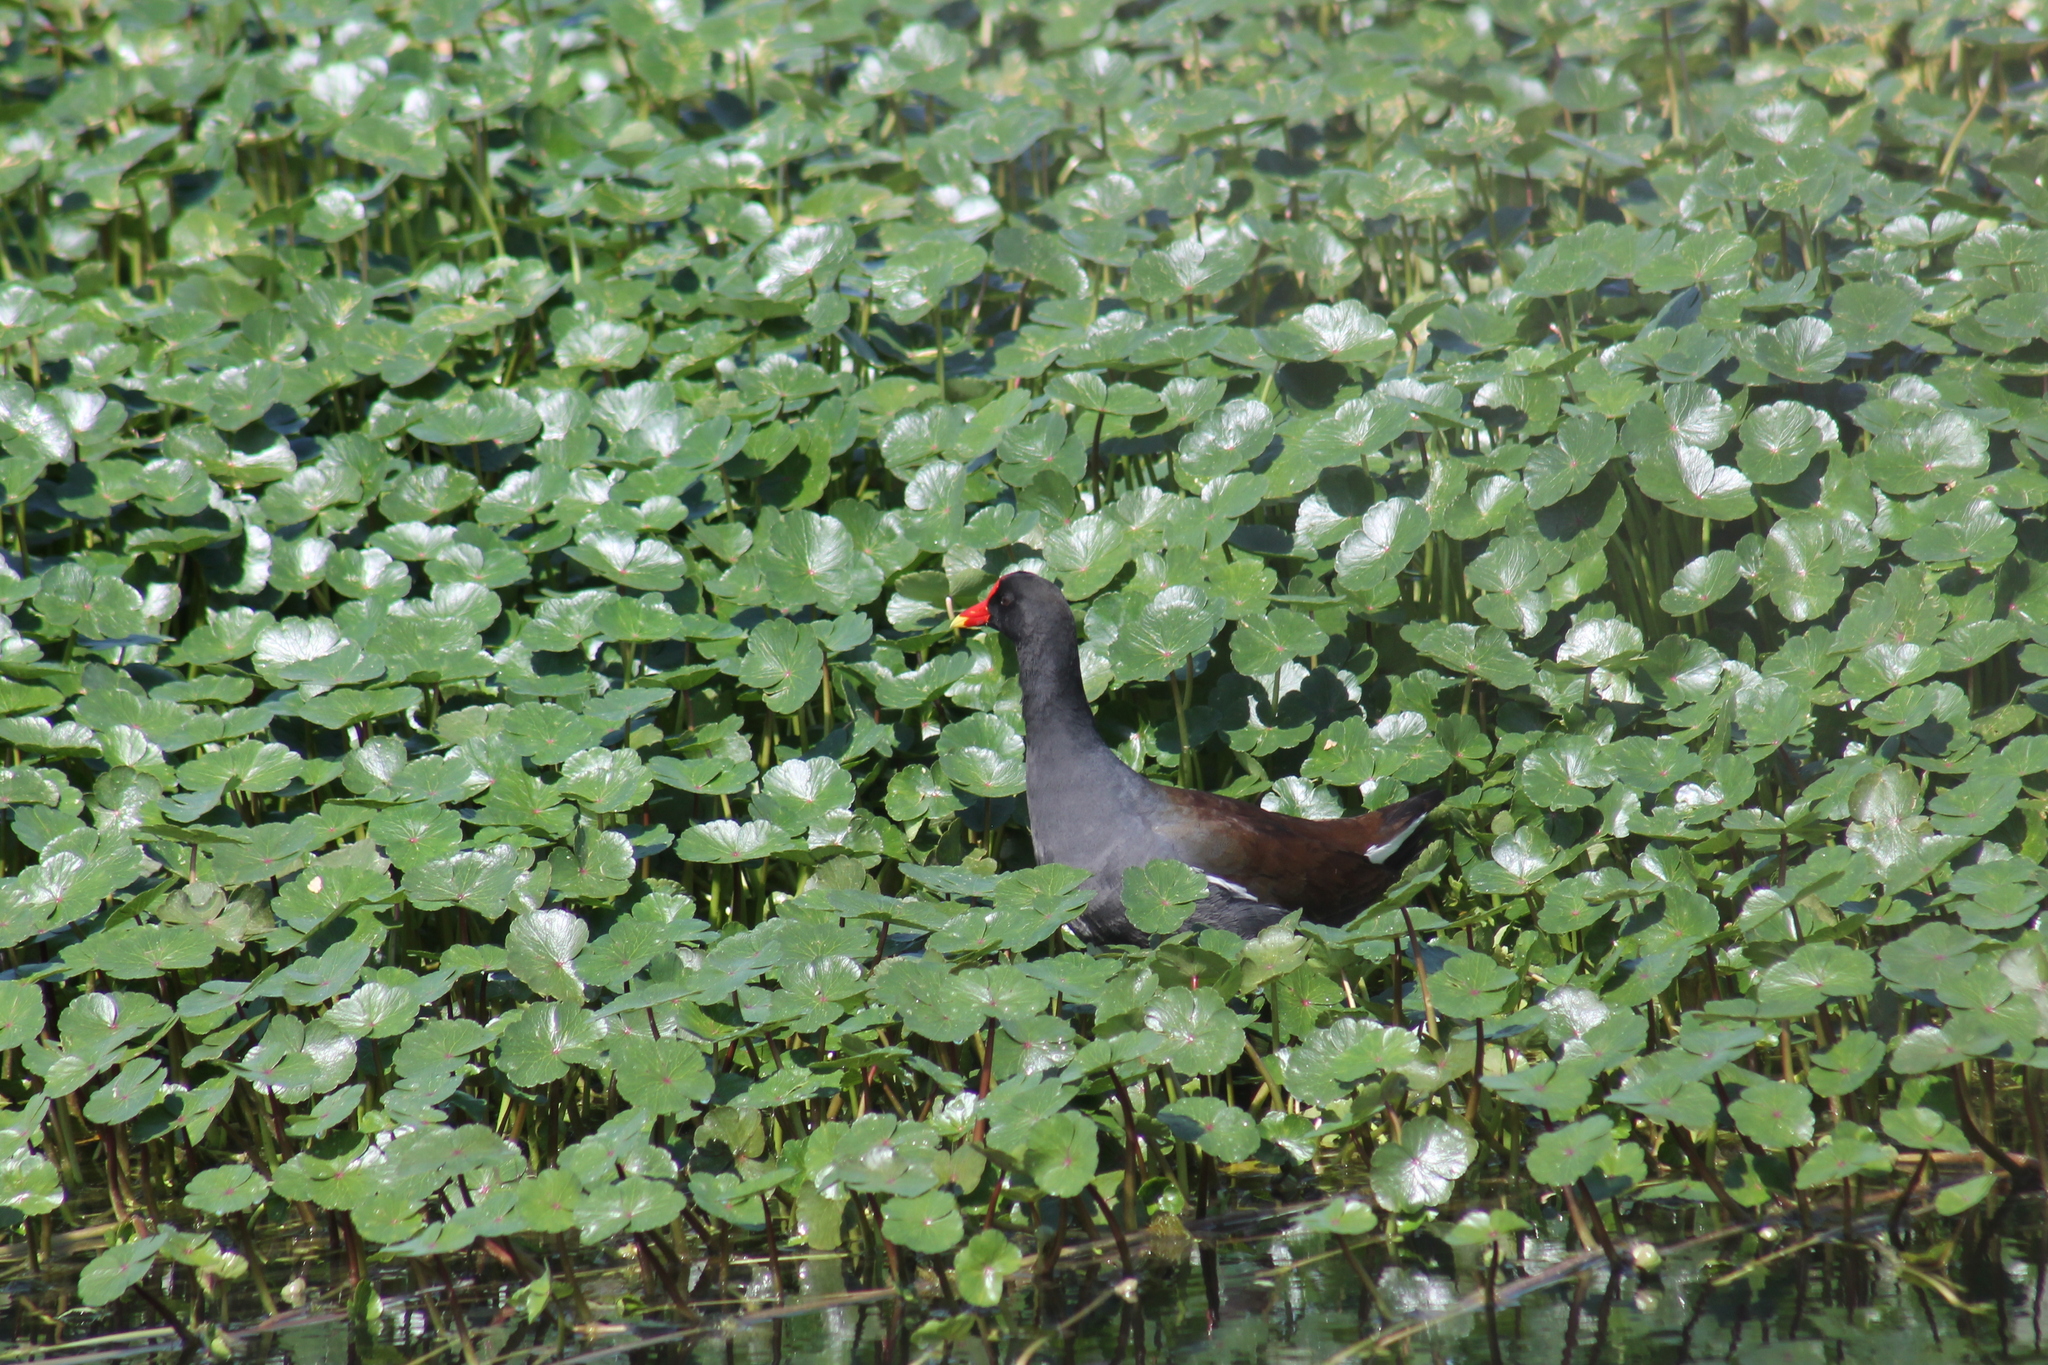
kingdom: Animalia
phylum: Chordata
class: Aves
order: Gruiformes
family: Rallidae
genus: Gallinula
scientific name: Gallinula chloropus
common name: Common moorhen
